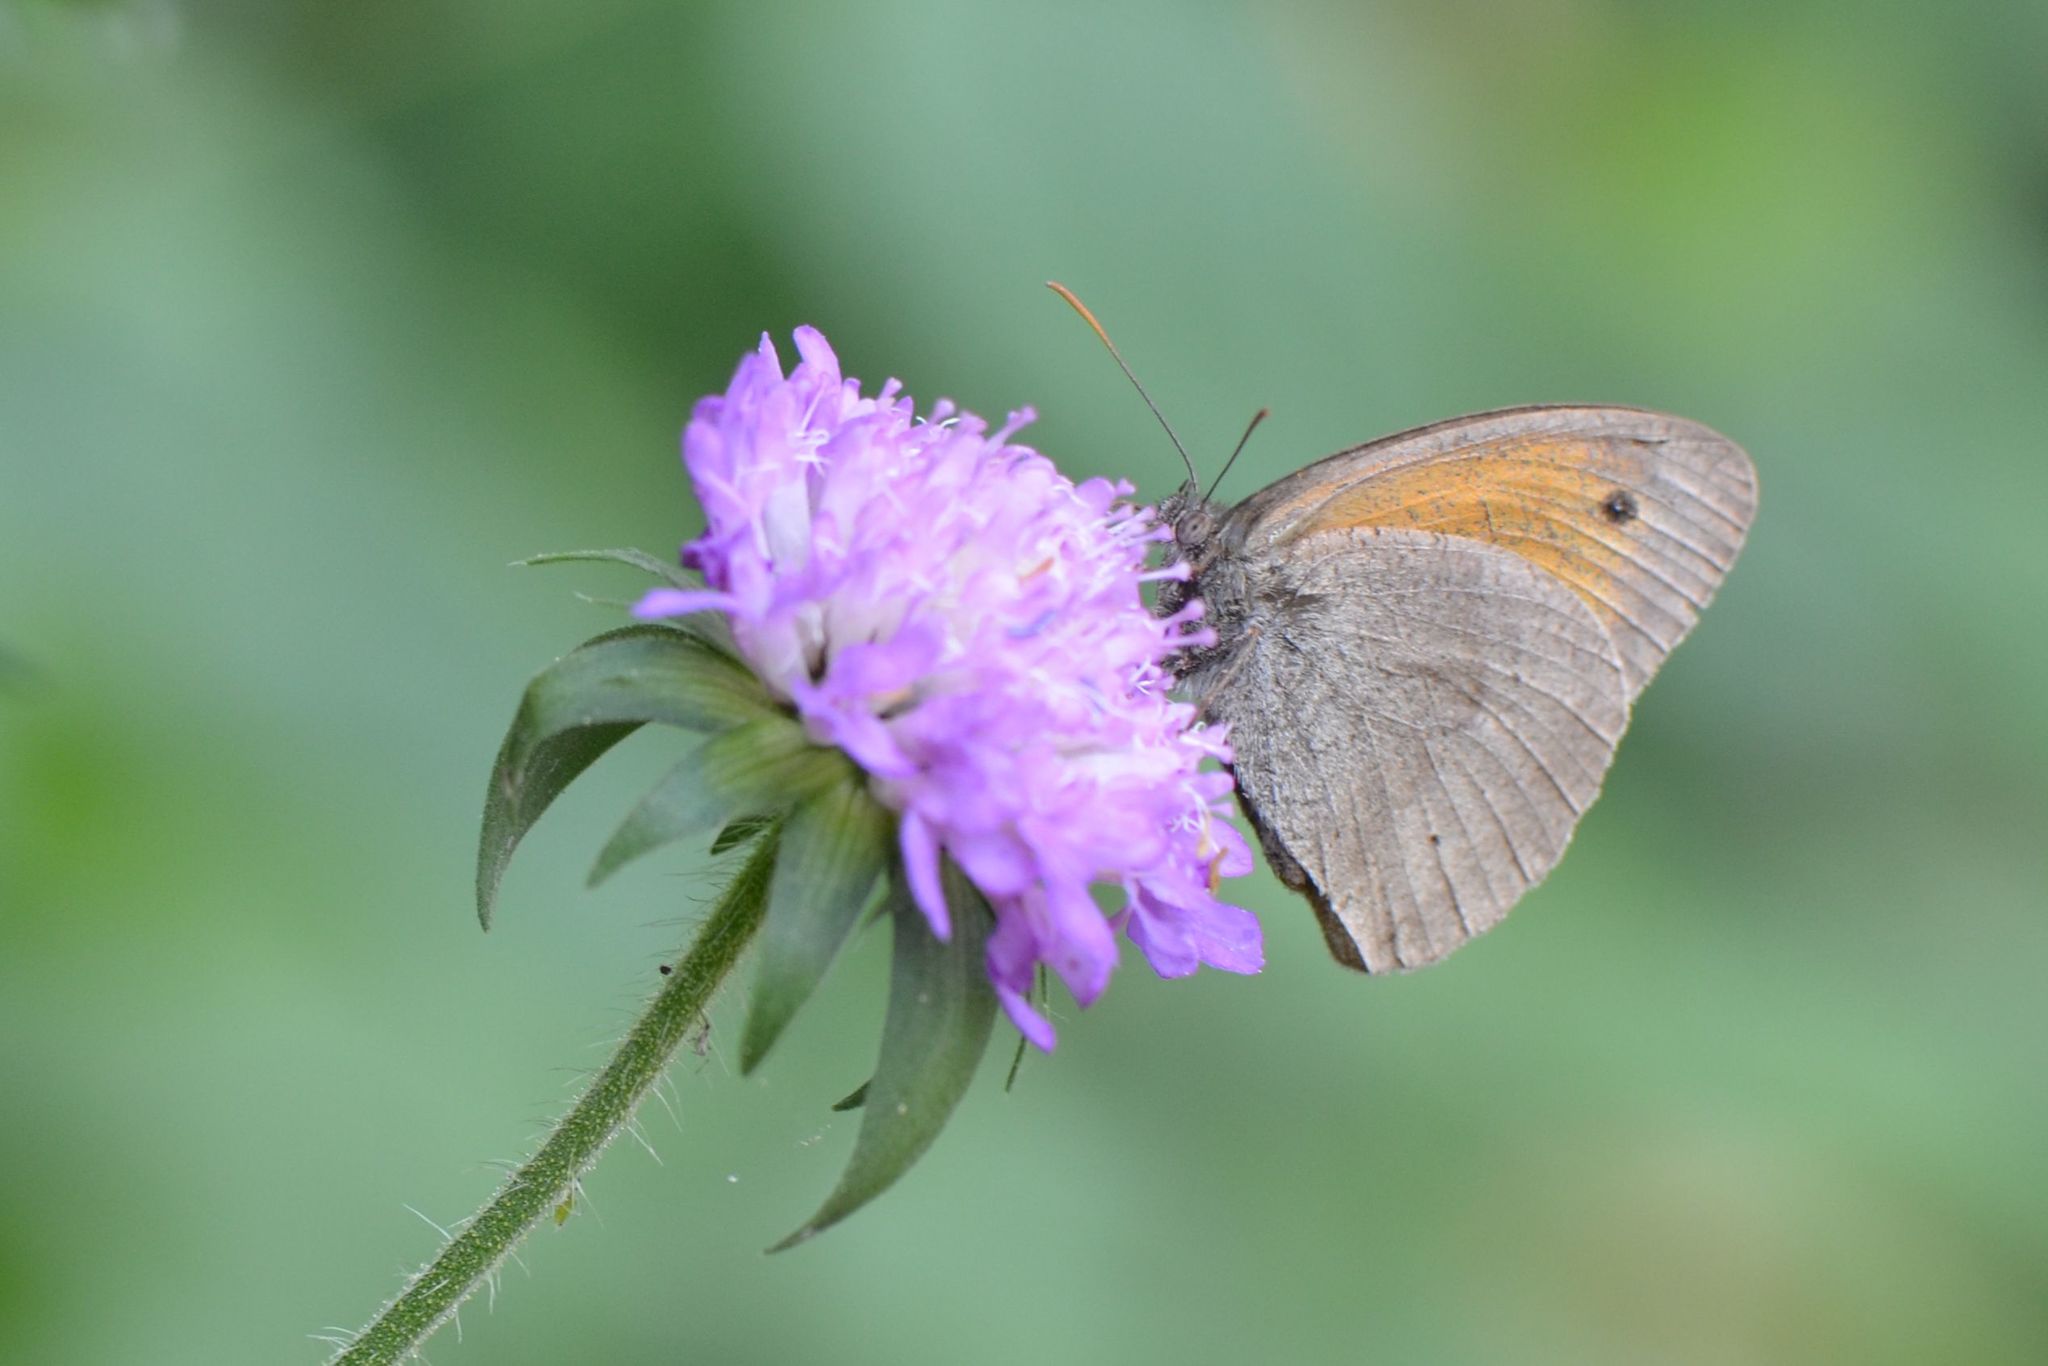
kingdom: Animalia
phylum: Arthropoda
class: Insecta
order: Lepidoptera
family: Nymphalidae
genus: Maniola
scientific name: Maniola jurtina
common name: Meadow brown
